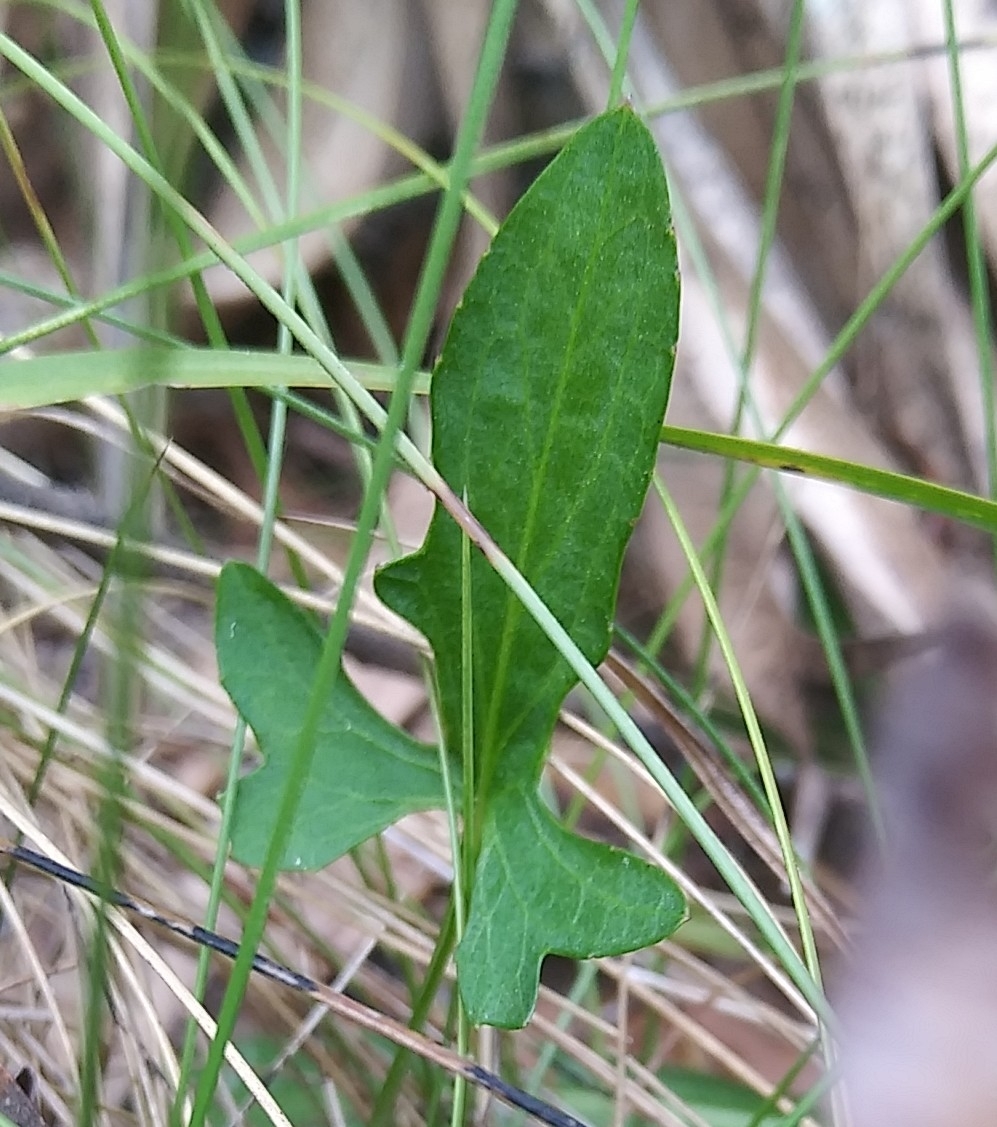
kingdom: Plantae
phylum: Tracheophyta
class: Magnoliopsida
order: Malpighiales
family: Violaceae
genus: Viola
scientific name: Viola palmata
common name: Early blue violet
